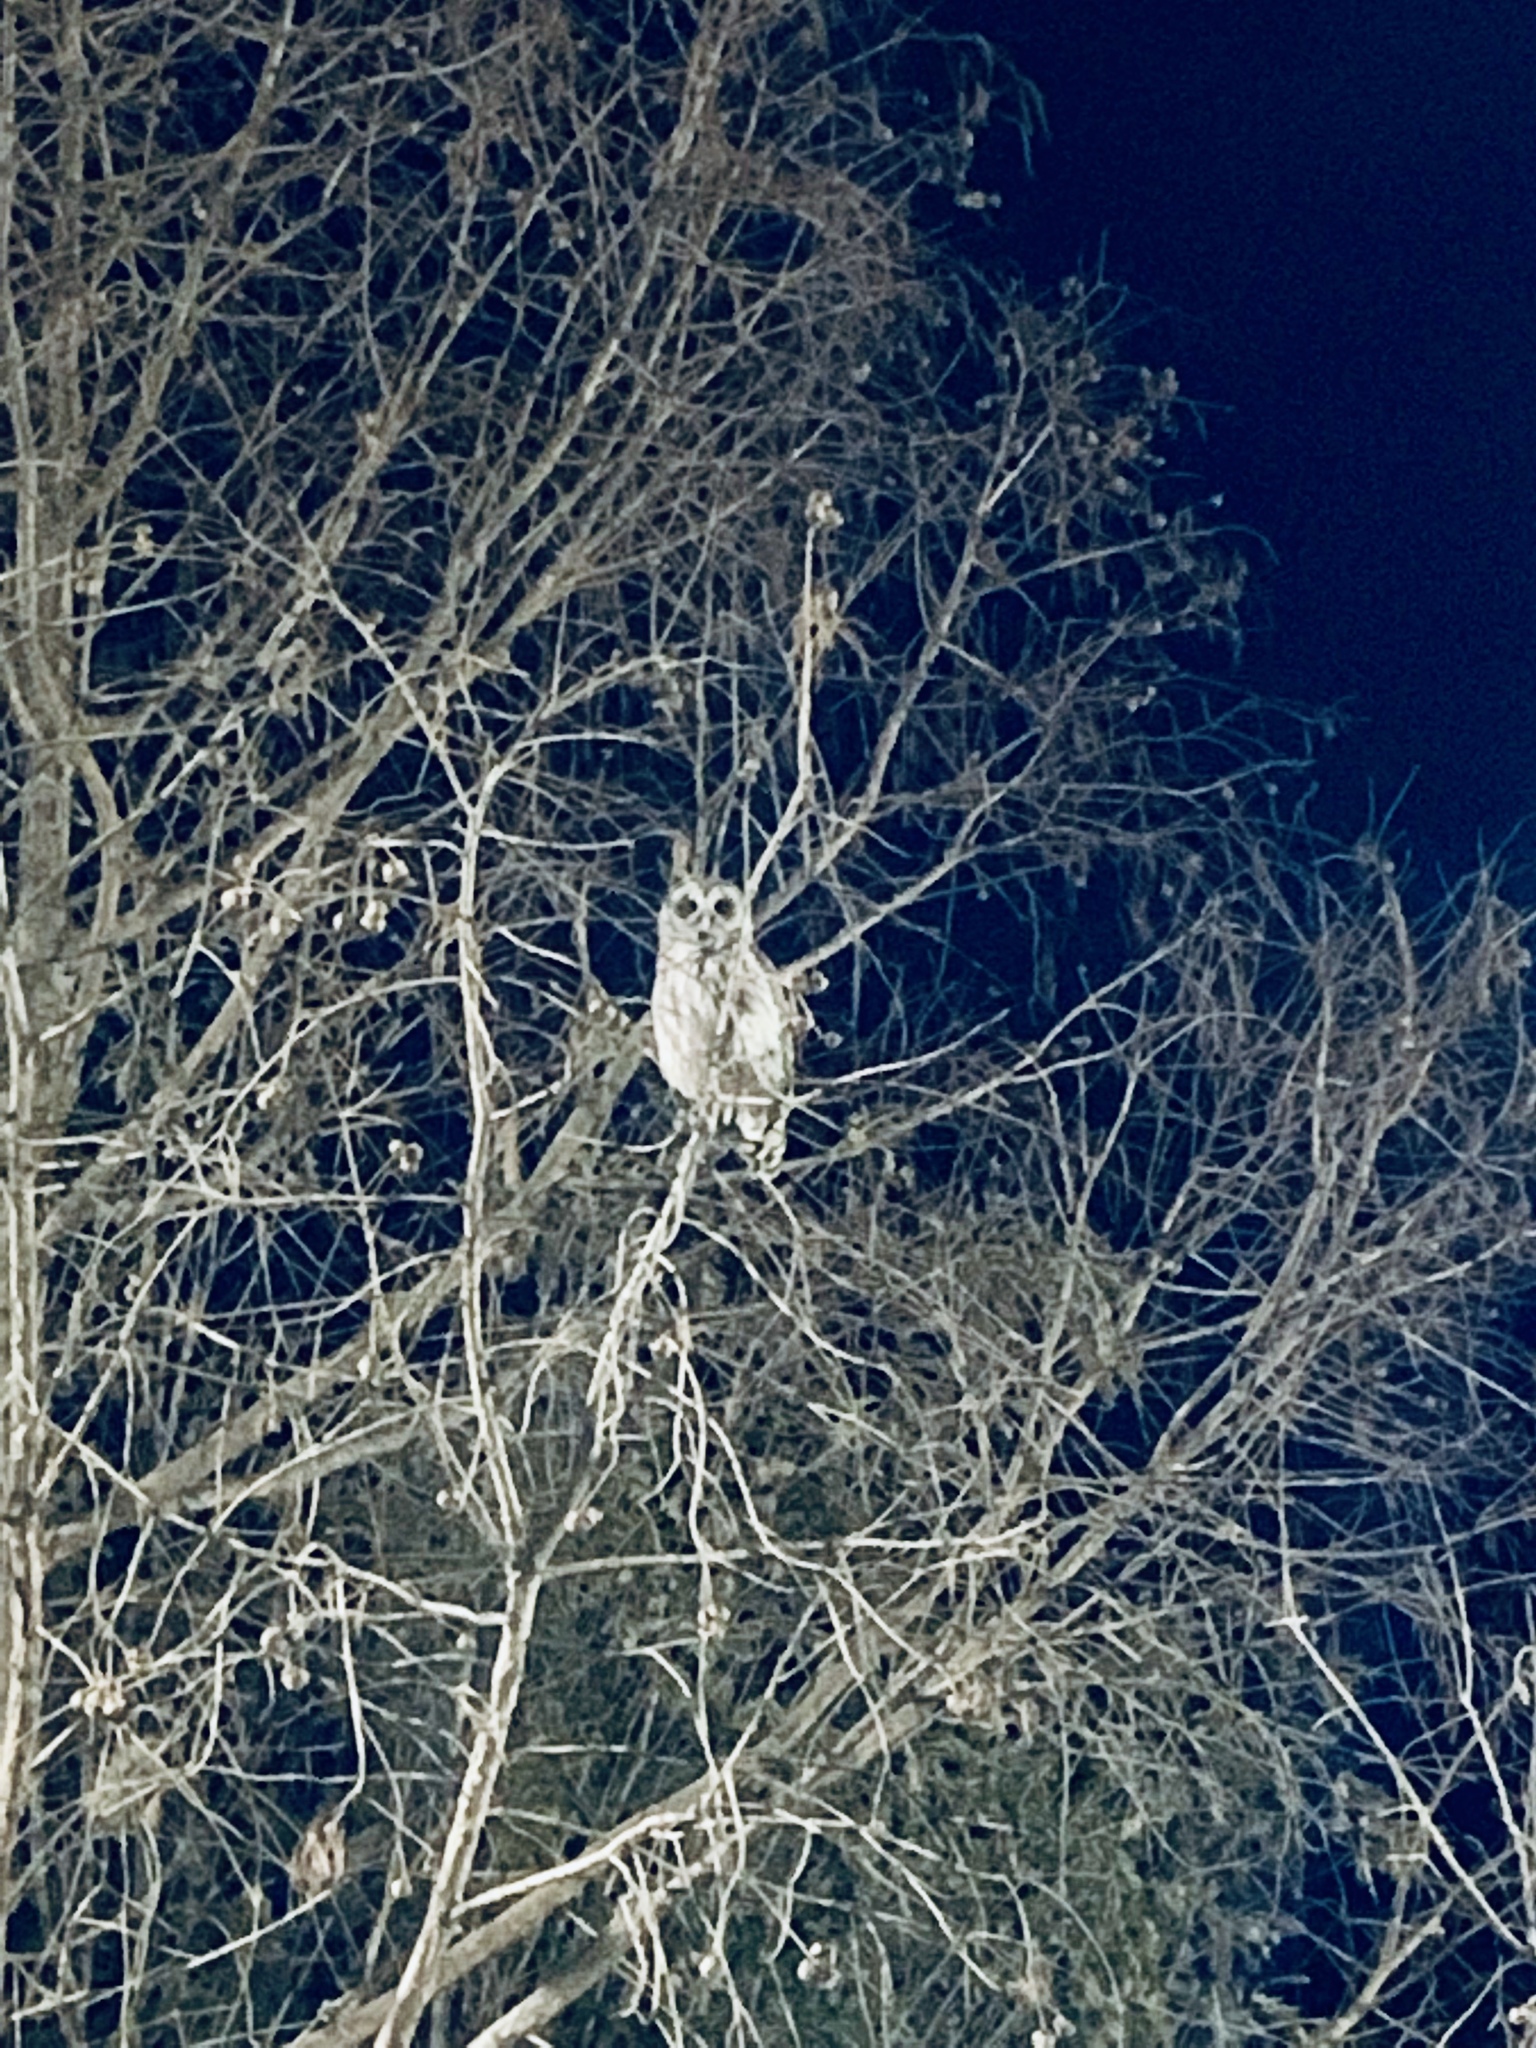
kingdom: Animalia
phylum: Chordata
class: Aves
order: Strigiformes
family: Strigidae
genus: Strix
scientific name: Strix varia
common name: Barred owl
